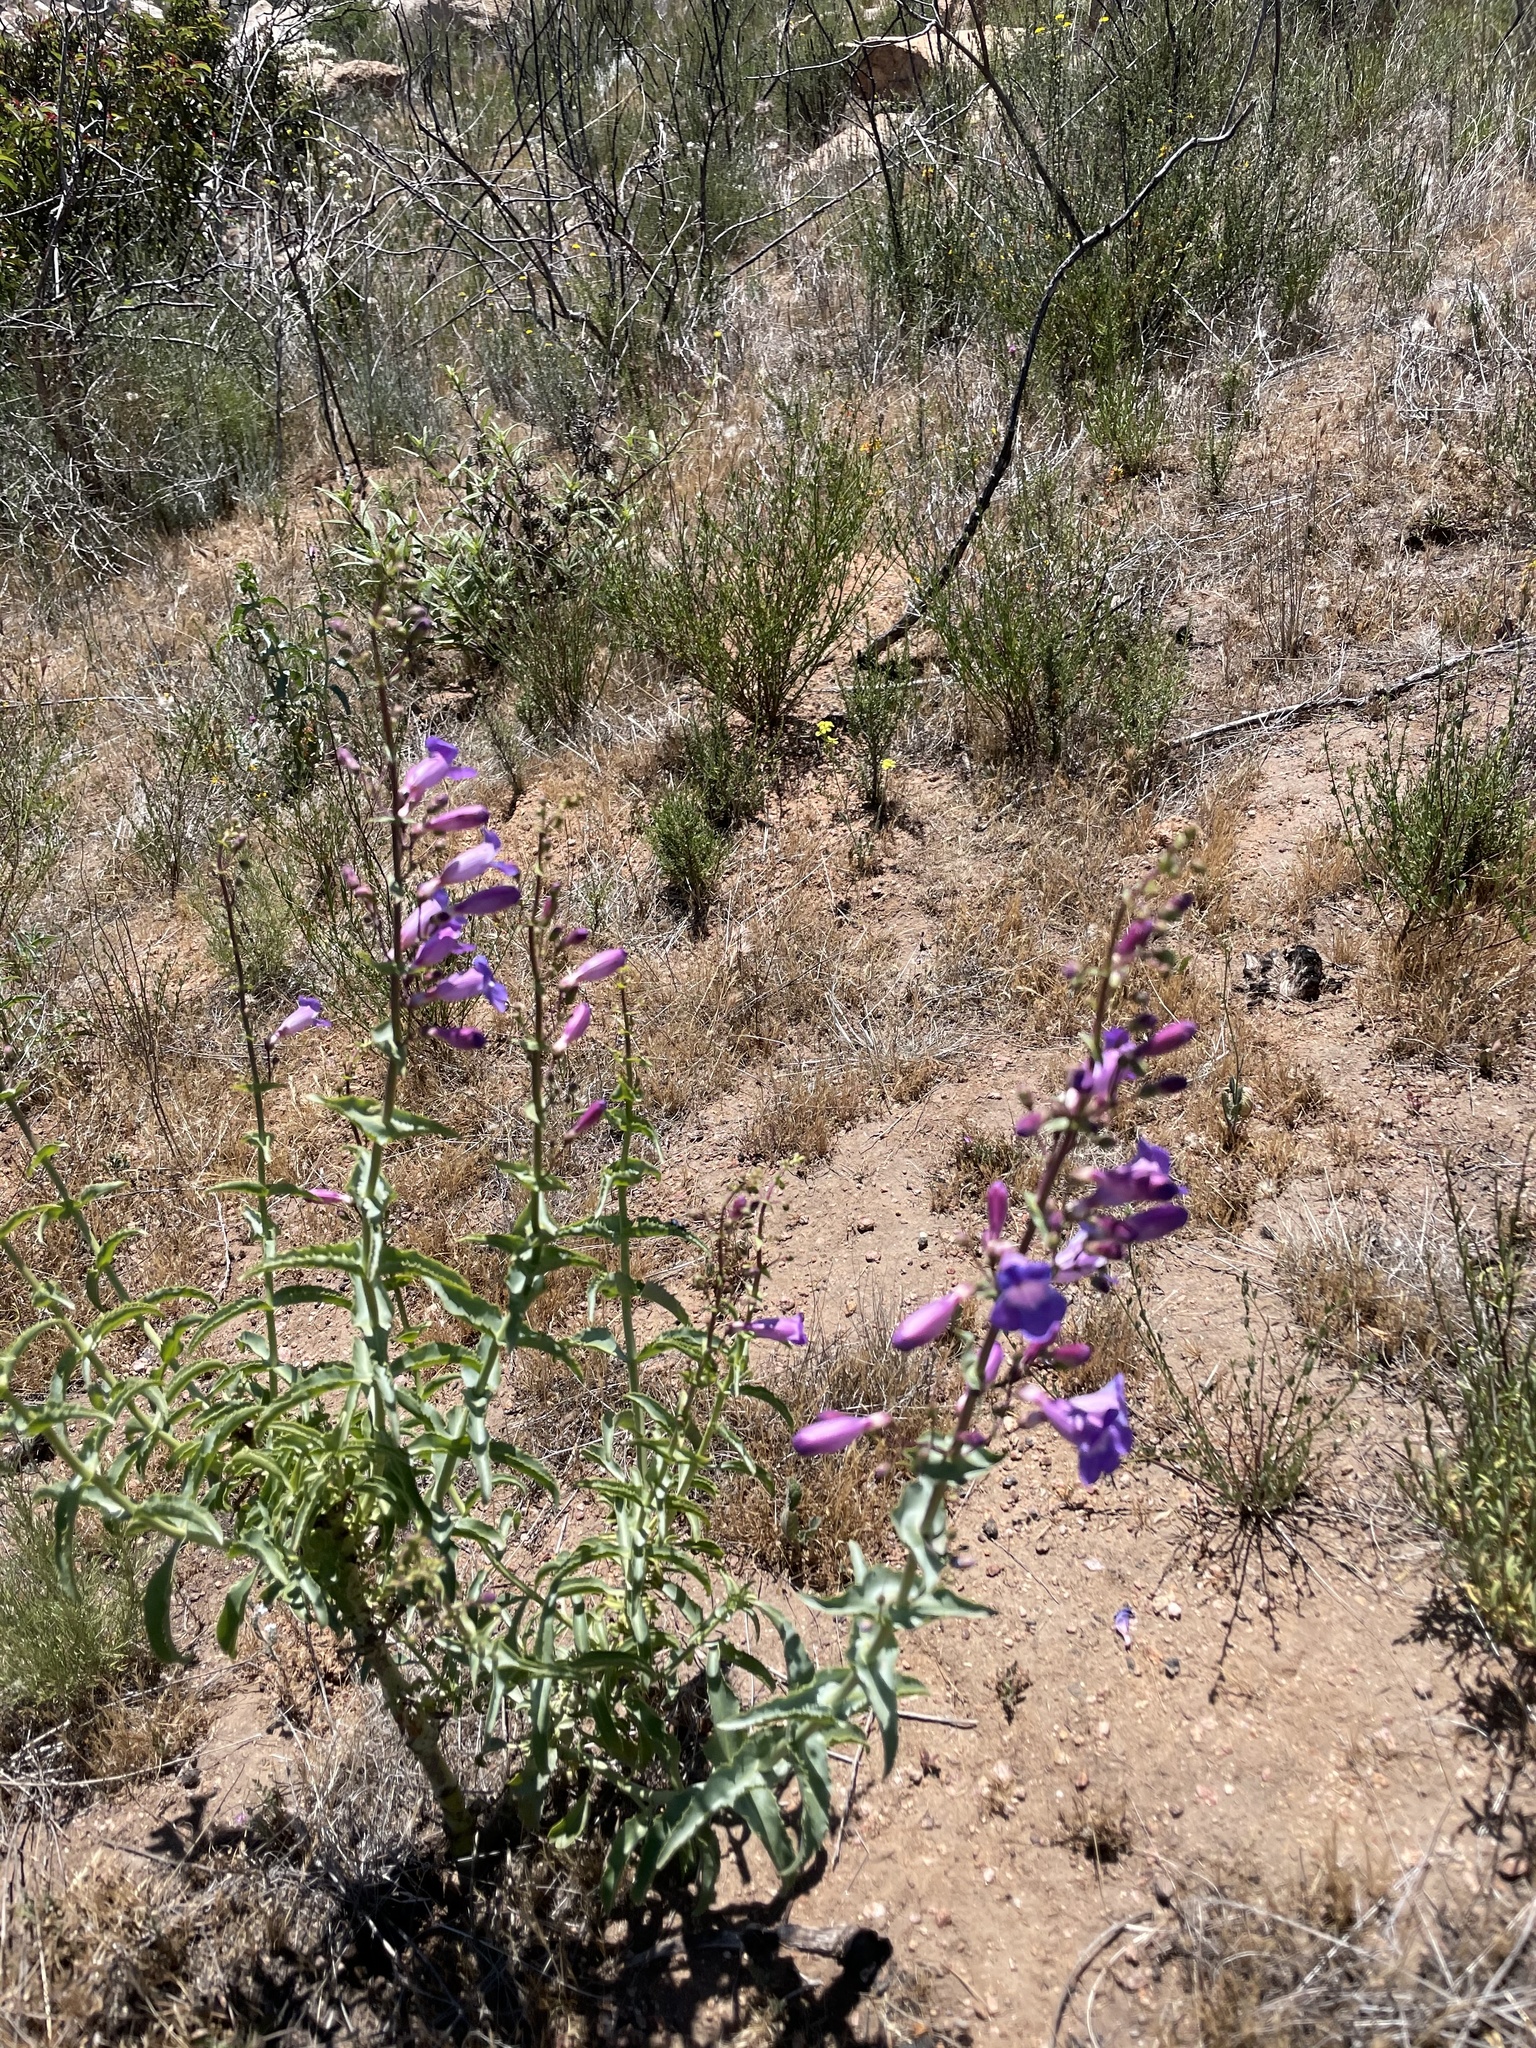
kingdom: Plantae
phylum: Tracheophyta
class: Magnoliopsida
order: Lamiales
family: Plantaginaceae
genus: Penstemon
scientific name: Penstemon spectabilis
